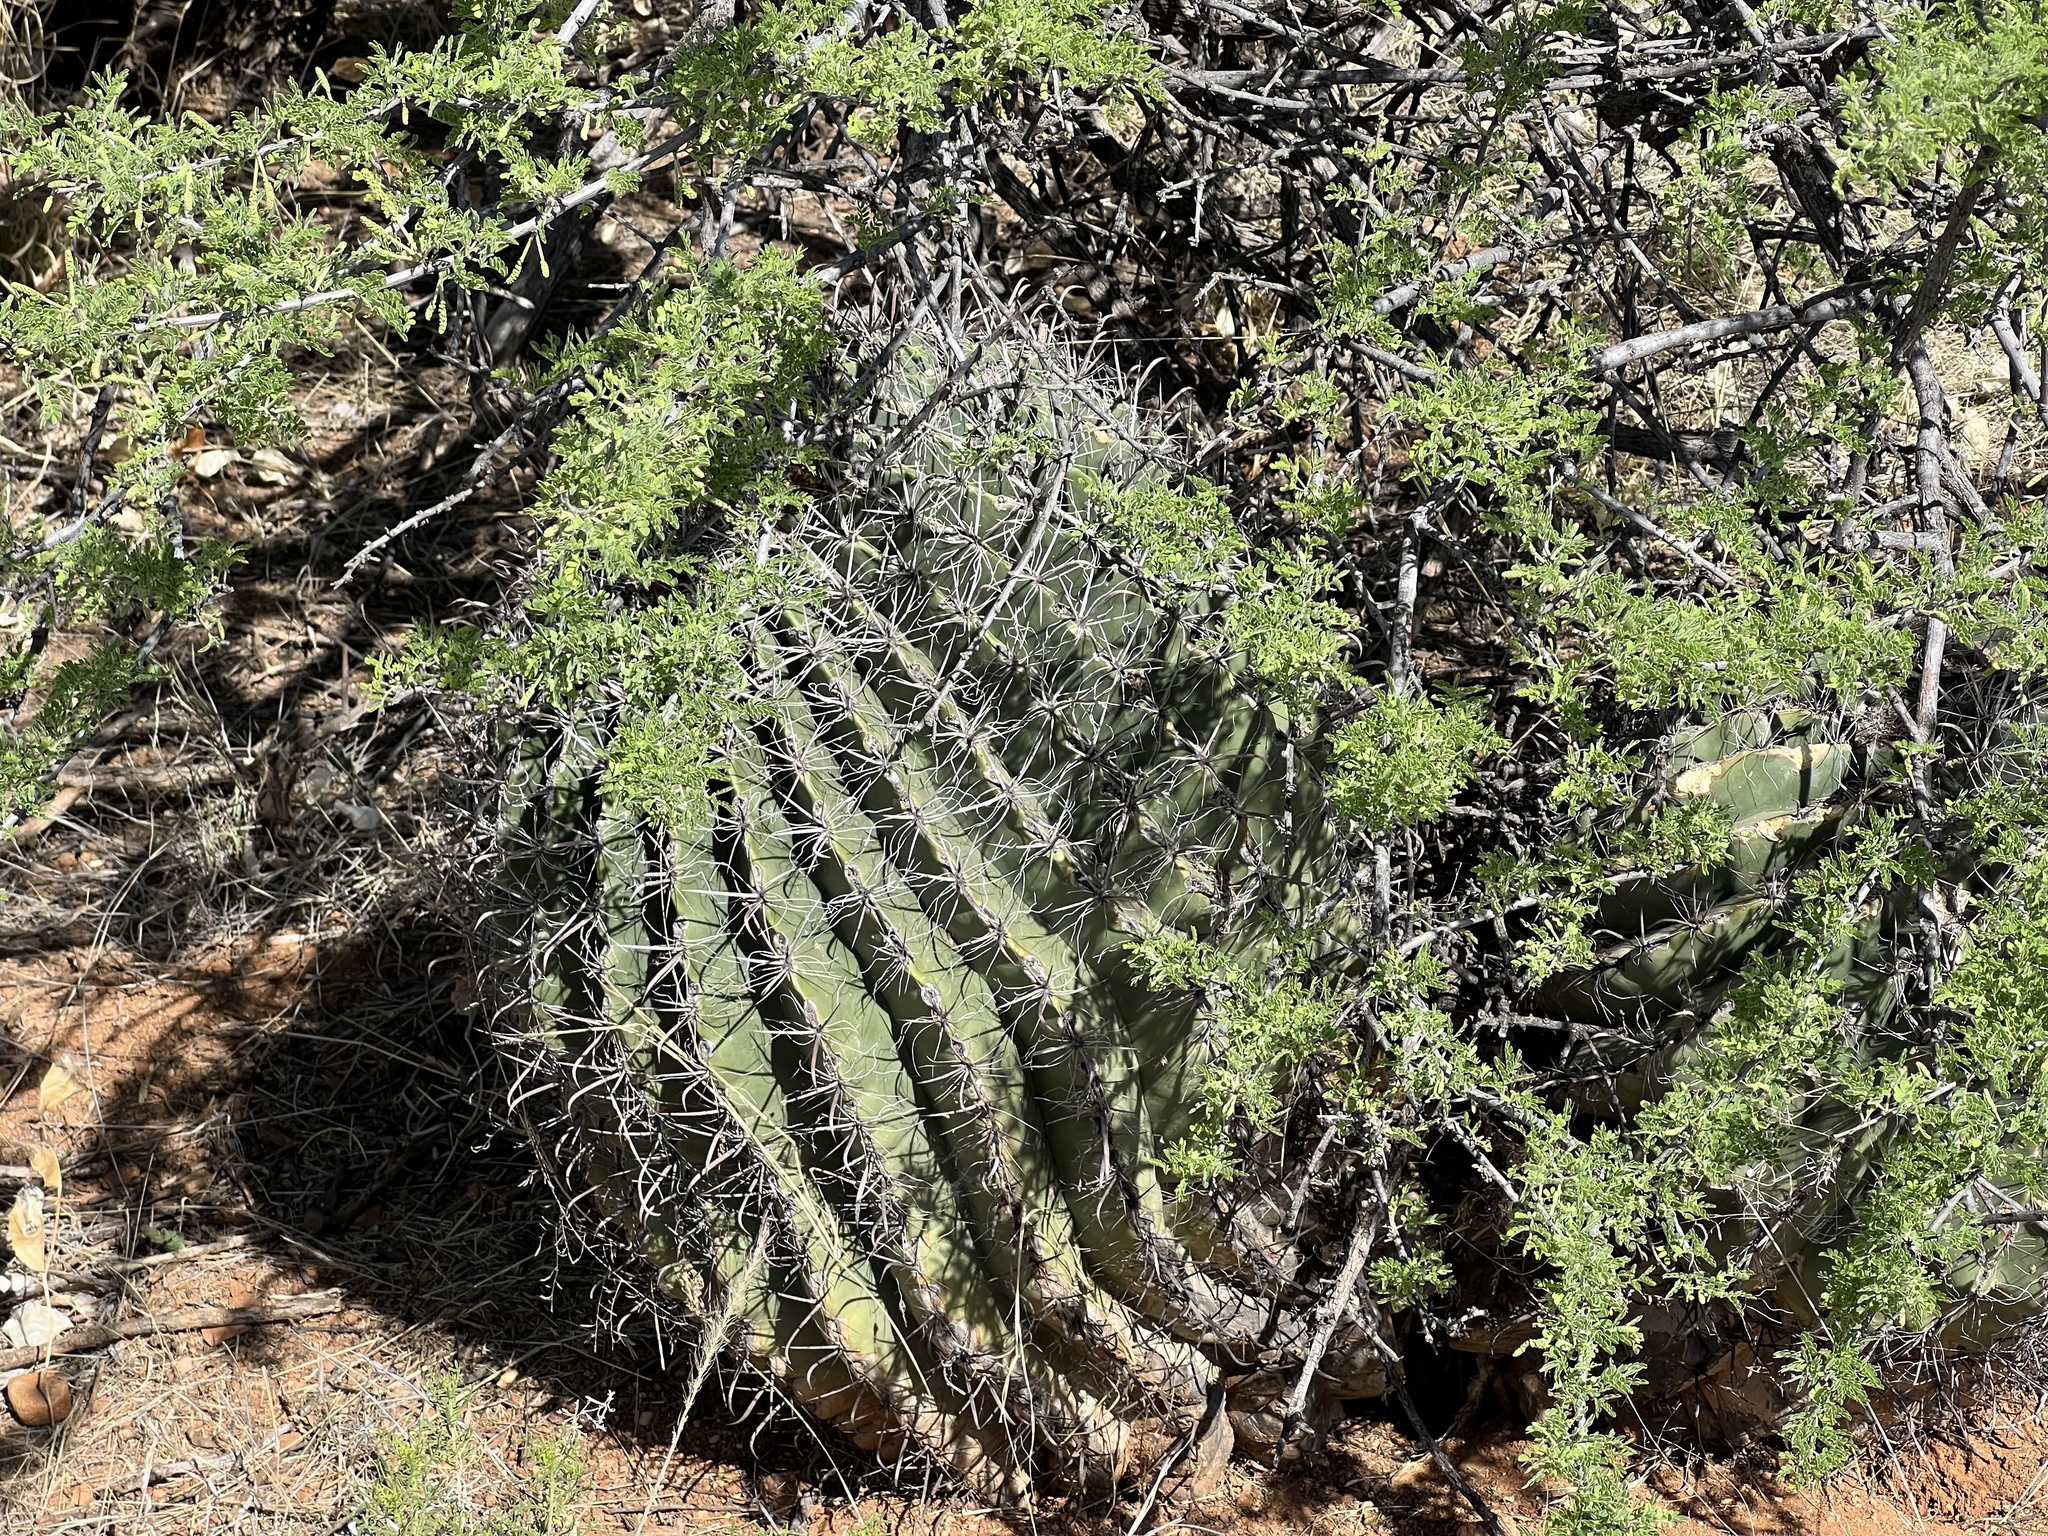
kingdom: Plantae
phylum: Tracheophyta
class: Magnoliopsida
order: Caryophyllales
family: Cactaceae
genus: Ferocactus
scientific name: Ferocactus wislizeni
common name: Candy barrel cactus
